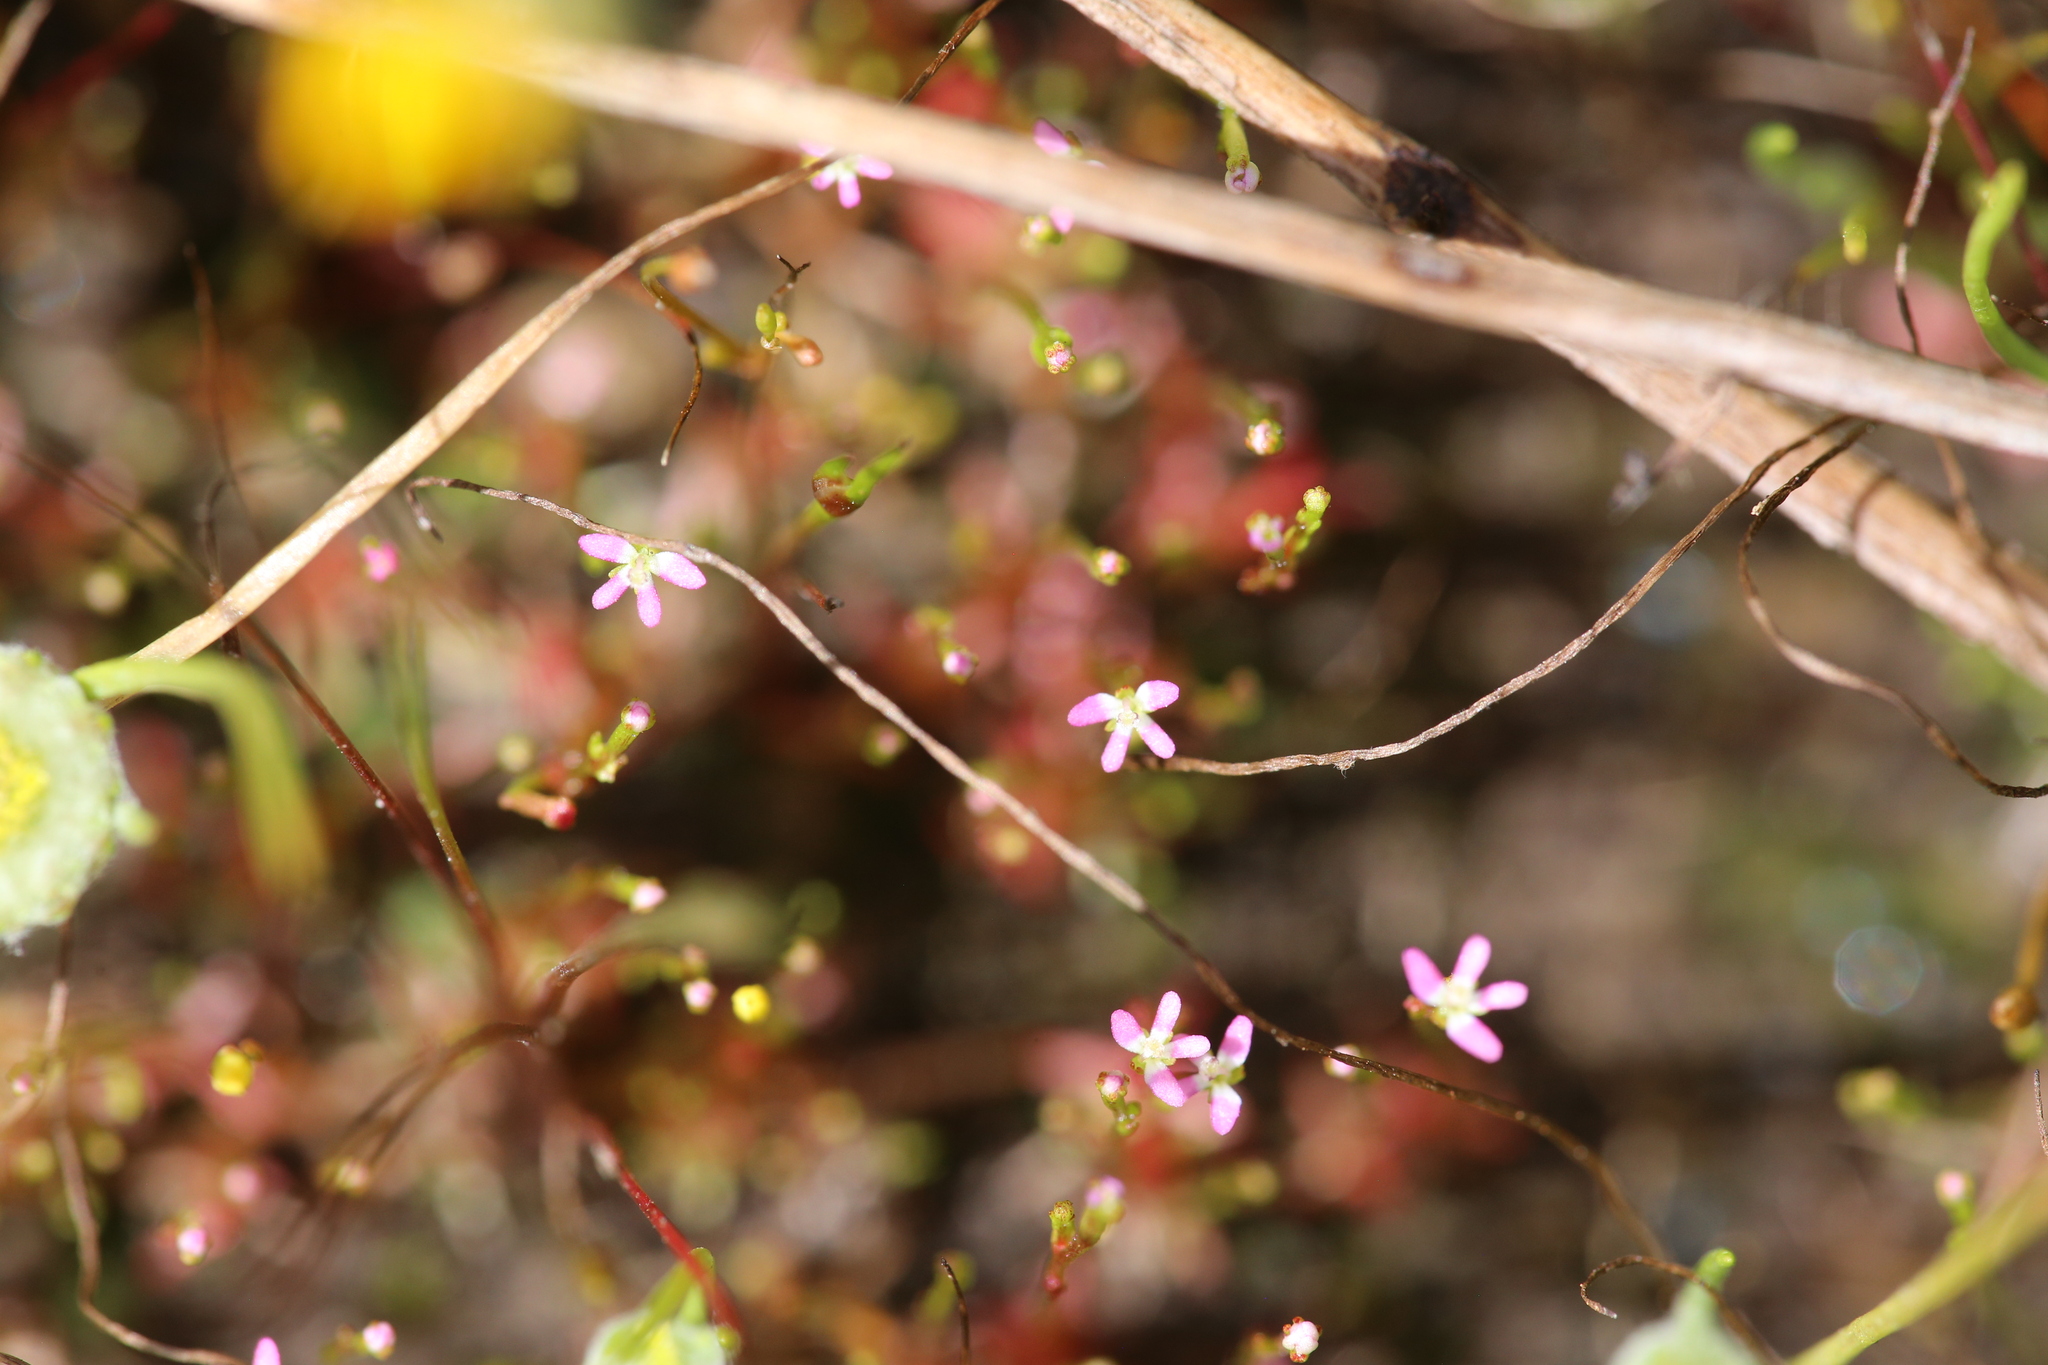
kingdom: Plantae
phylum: Tracheophyta
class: Magnoliopsida
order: Asterales
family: Stylidiaceae
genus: Stylidium
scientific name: Stylidium despectum
